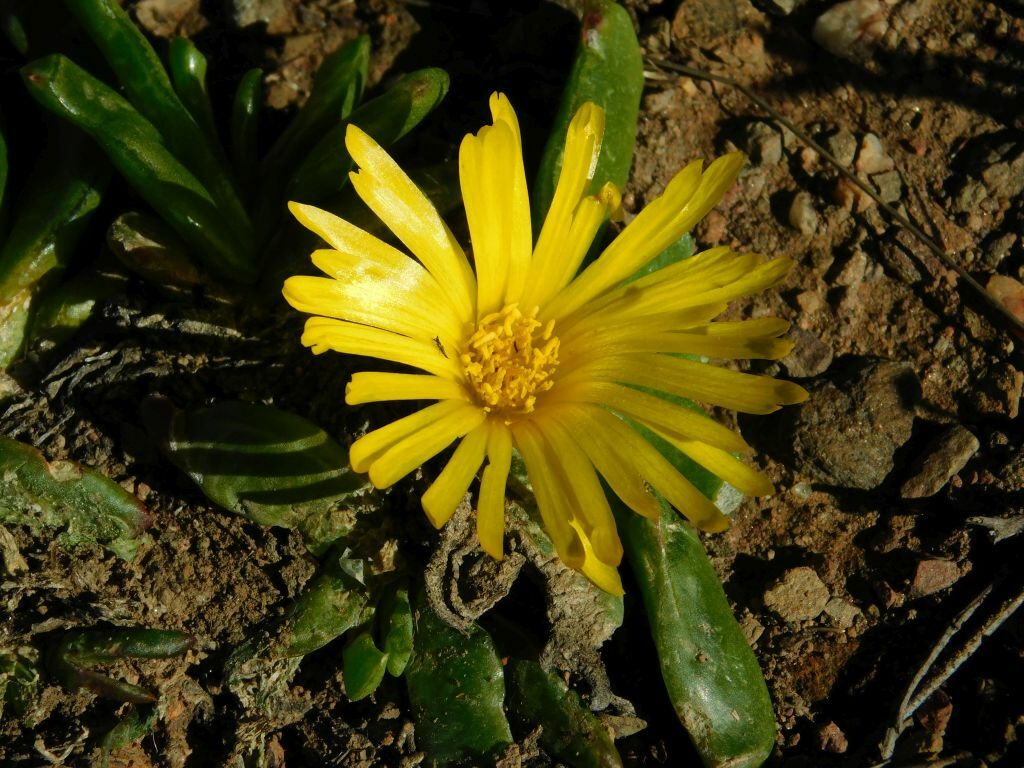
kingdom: Plantae
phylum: Tracheophyta
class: Magnoliopsida
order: Caryophyllales
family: Aizoaceae
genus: Glottiphyllum
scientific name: Glottiphyllum depressum
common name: Fig-marigold
